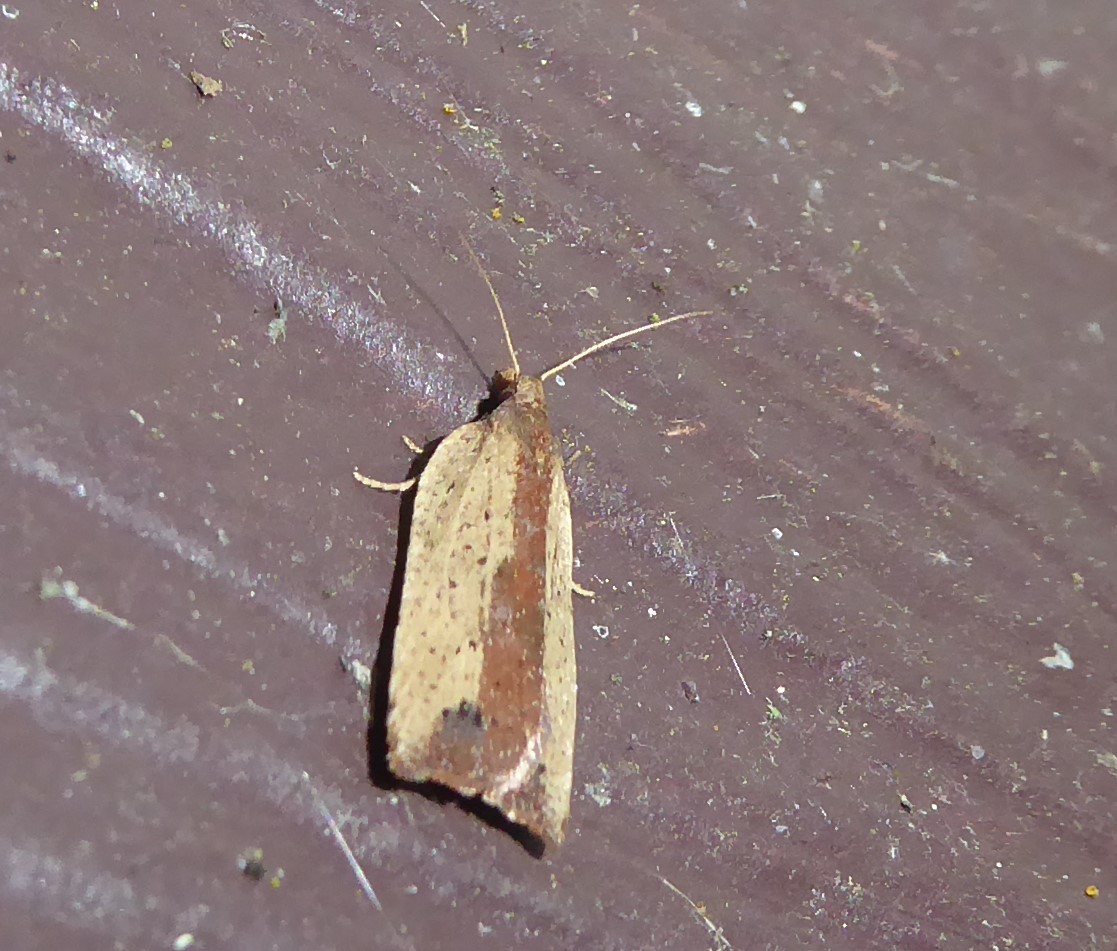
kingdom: Animalia
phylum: Arthropoda
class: Insecta
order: Lepidoptera
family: Tortricidae
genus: Planotortrix
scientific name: Planotortrix notophaea
